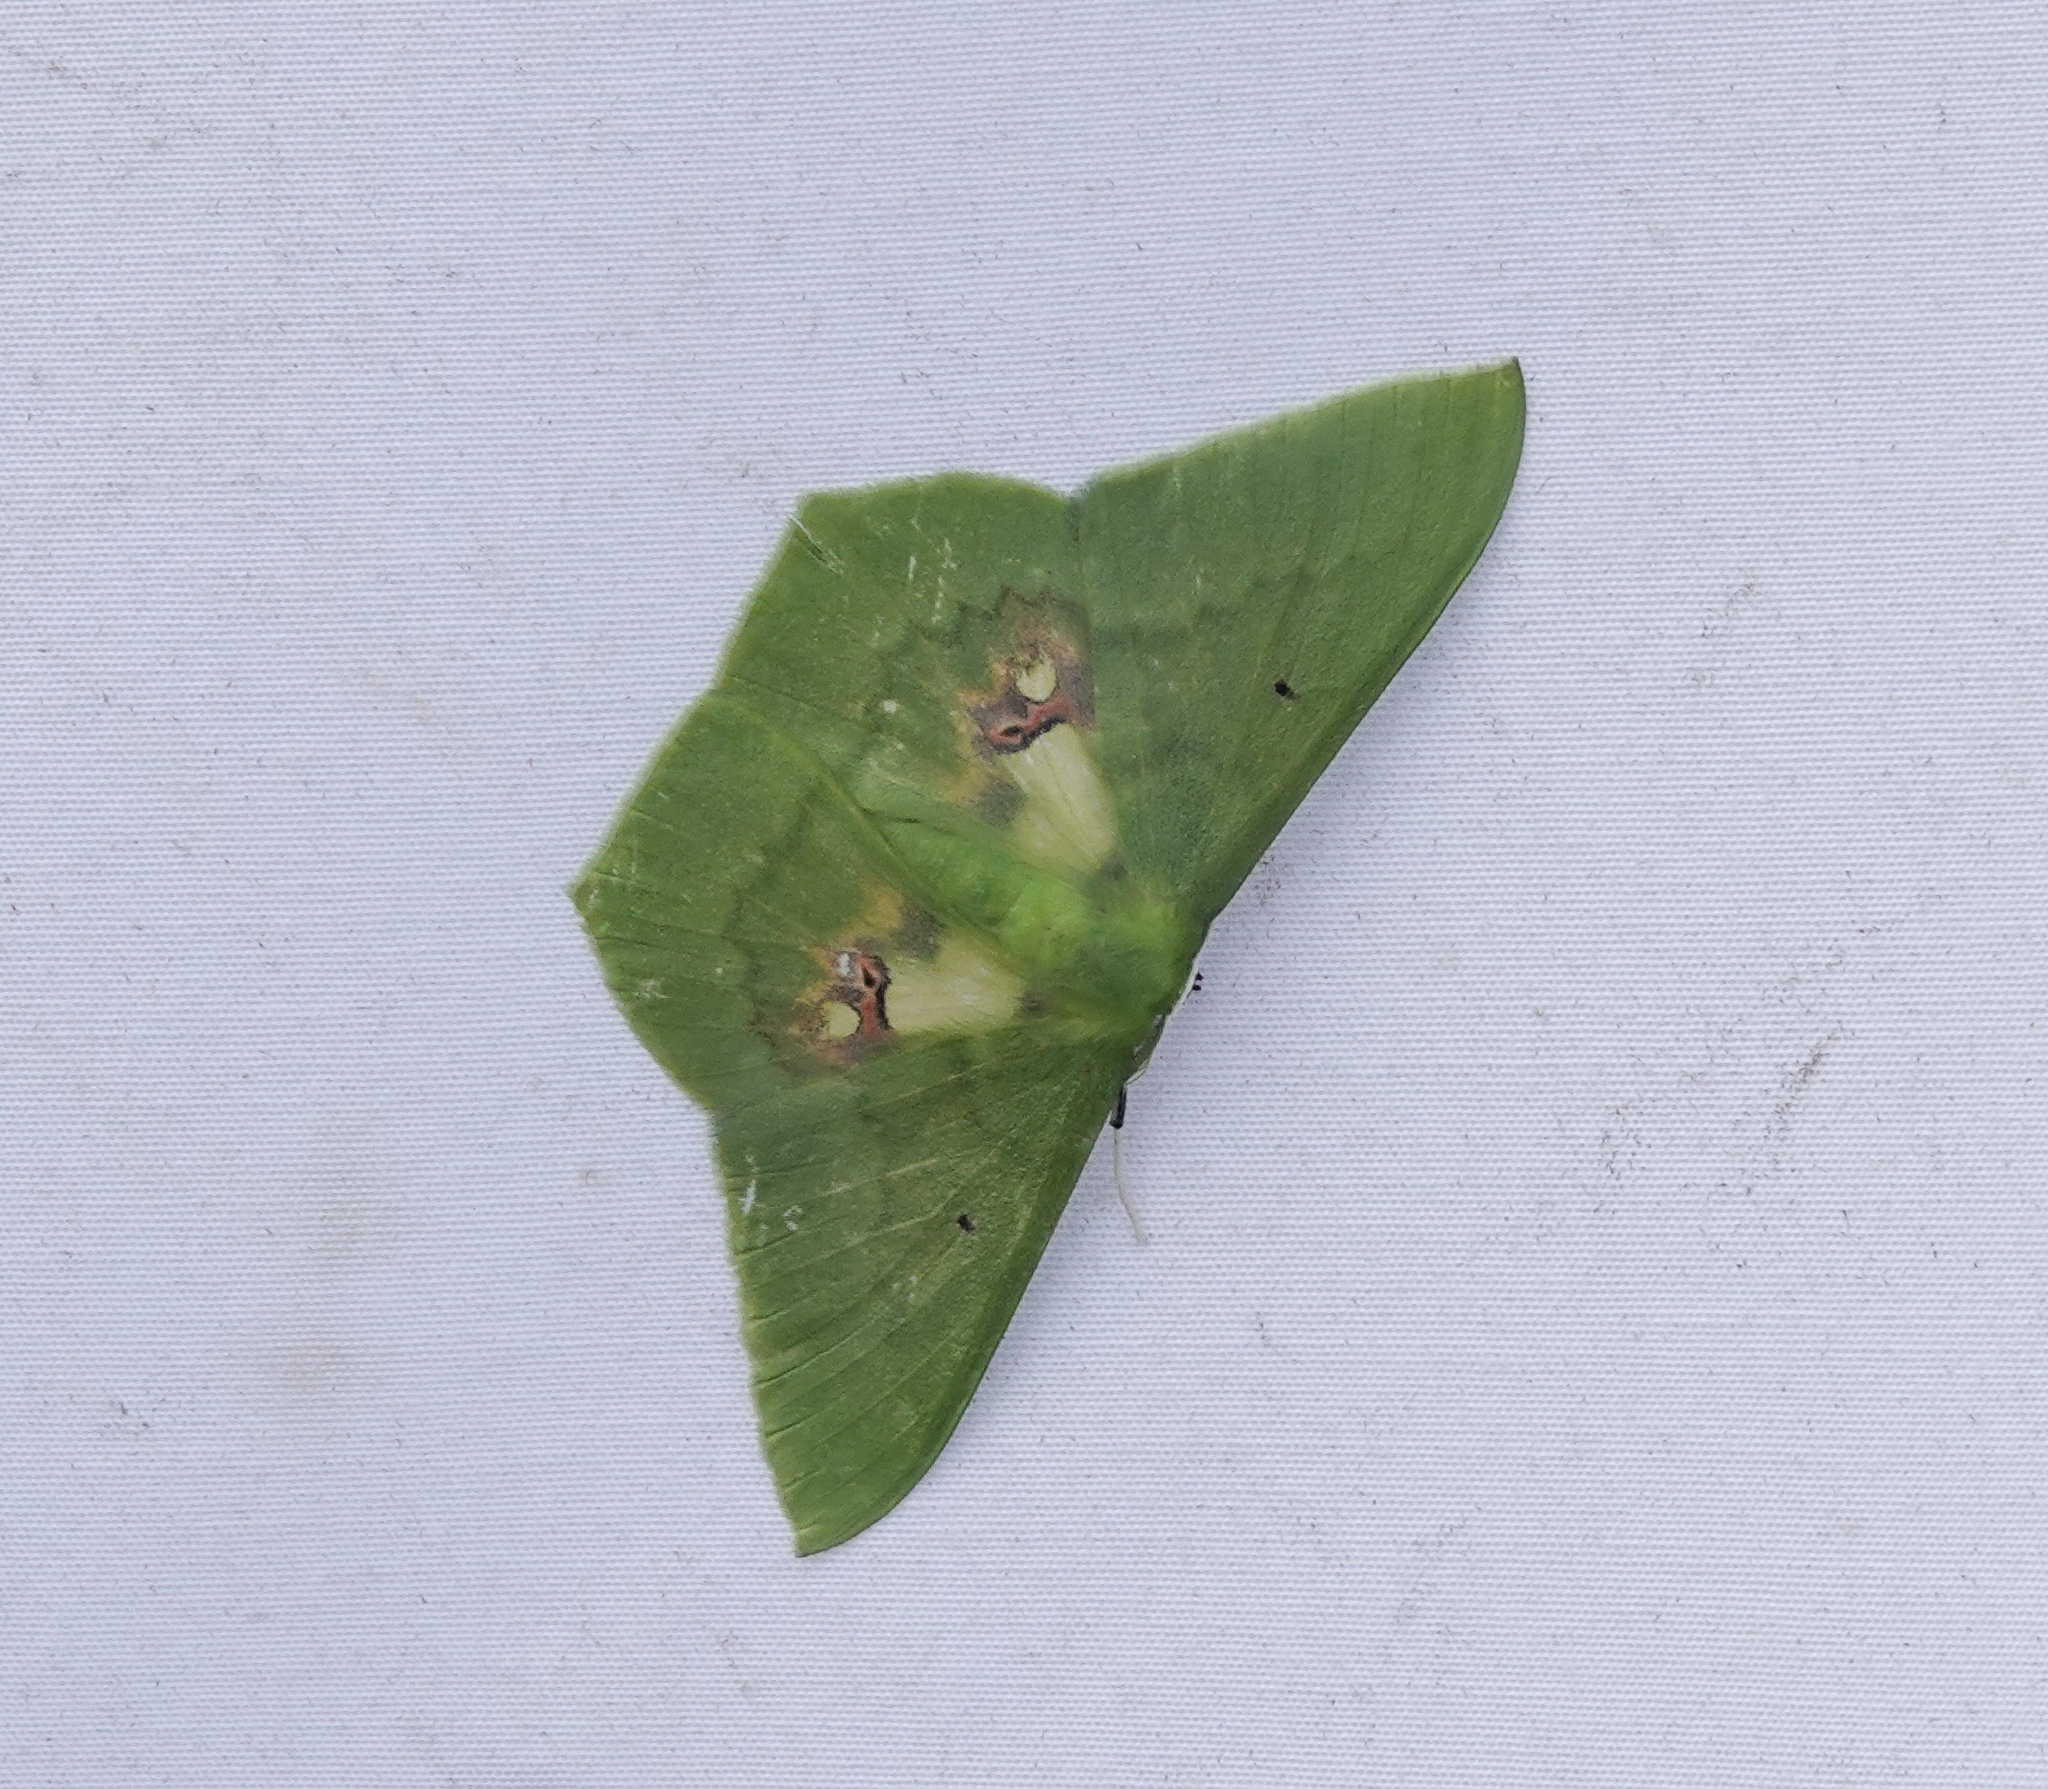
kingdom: Animalia
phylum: Arthropoda
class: Insecta
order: Lepidoptera
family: Geometridae
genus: Aporandria
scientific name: Aporandria specularia
